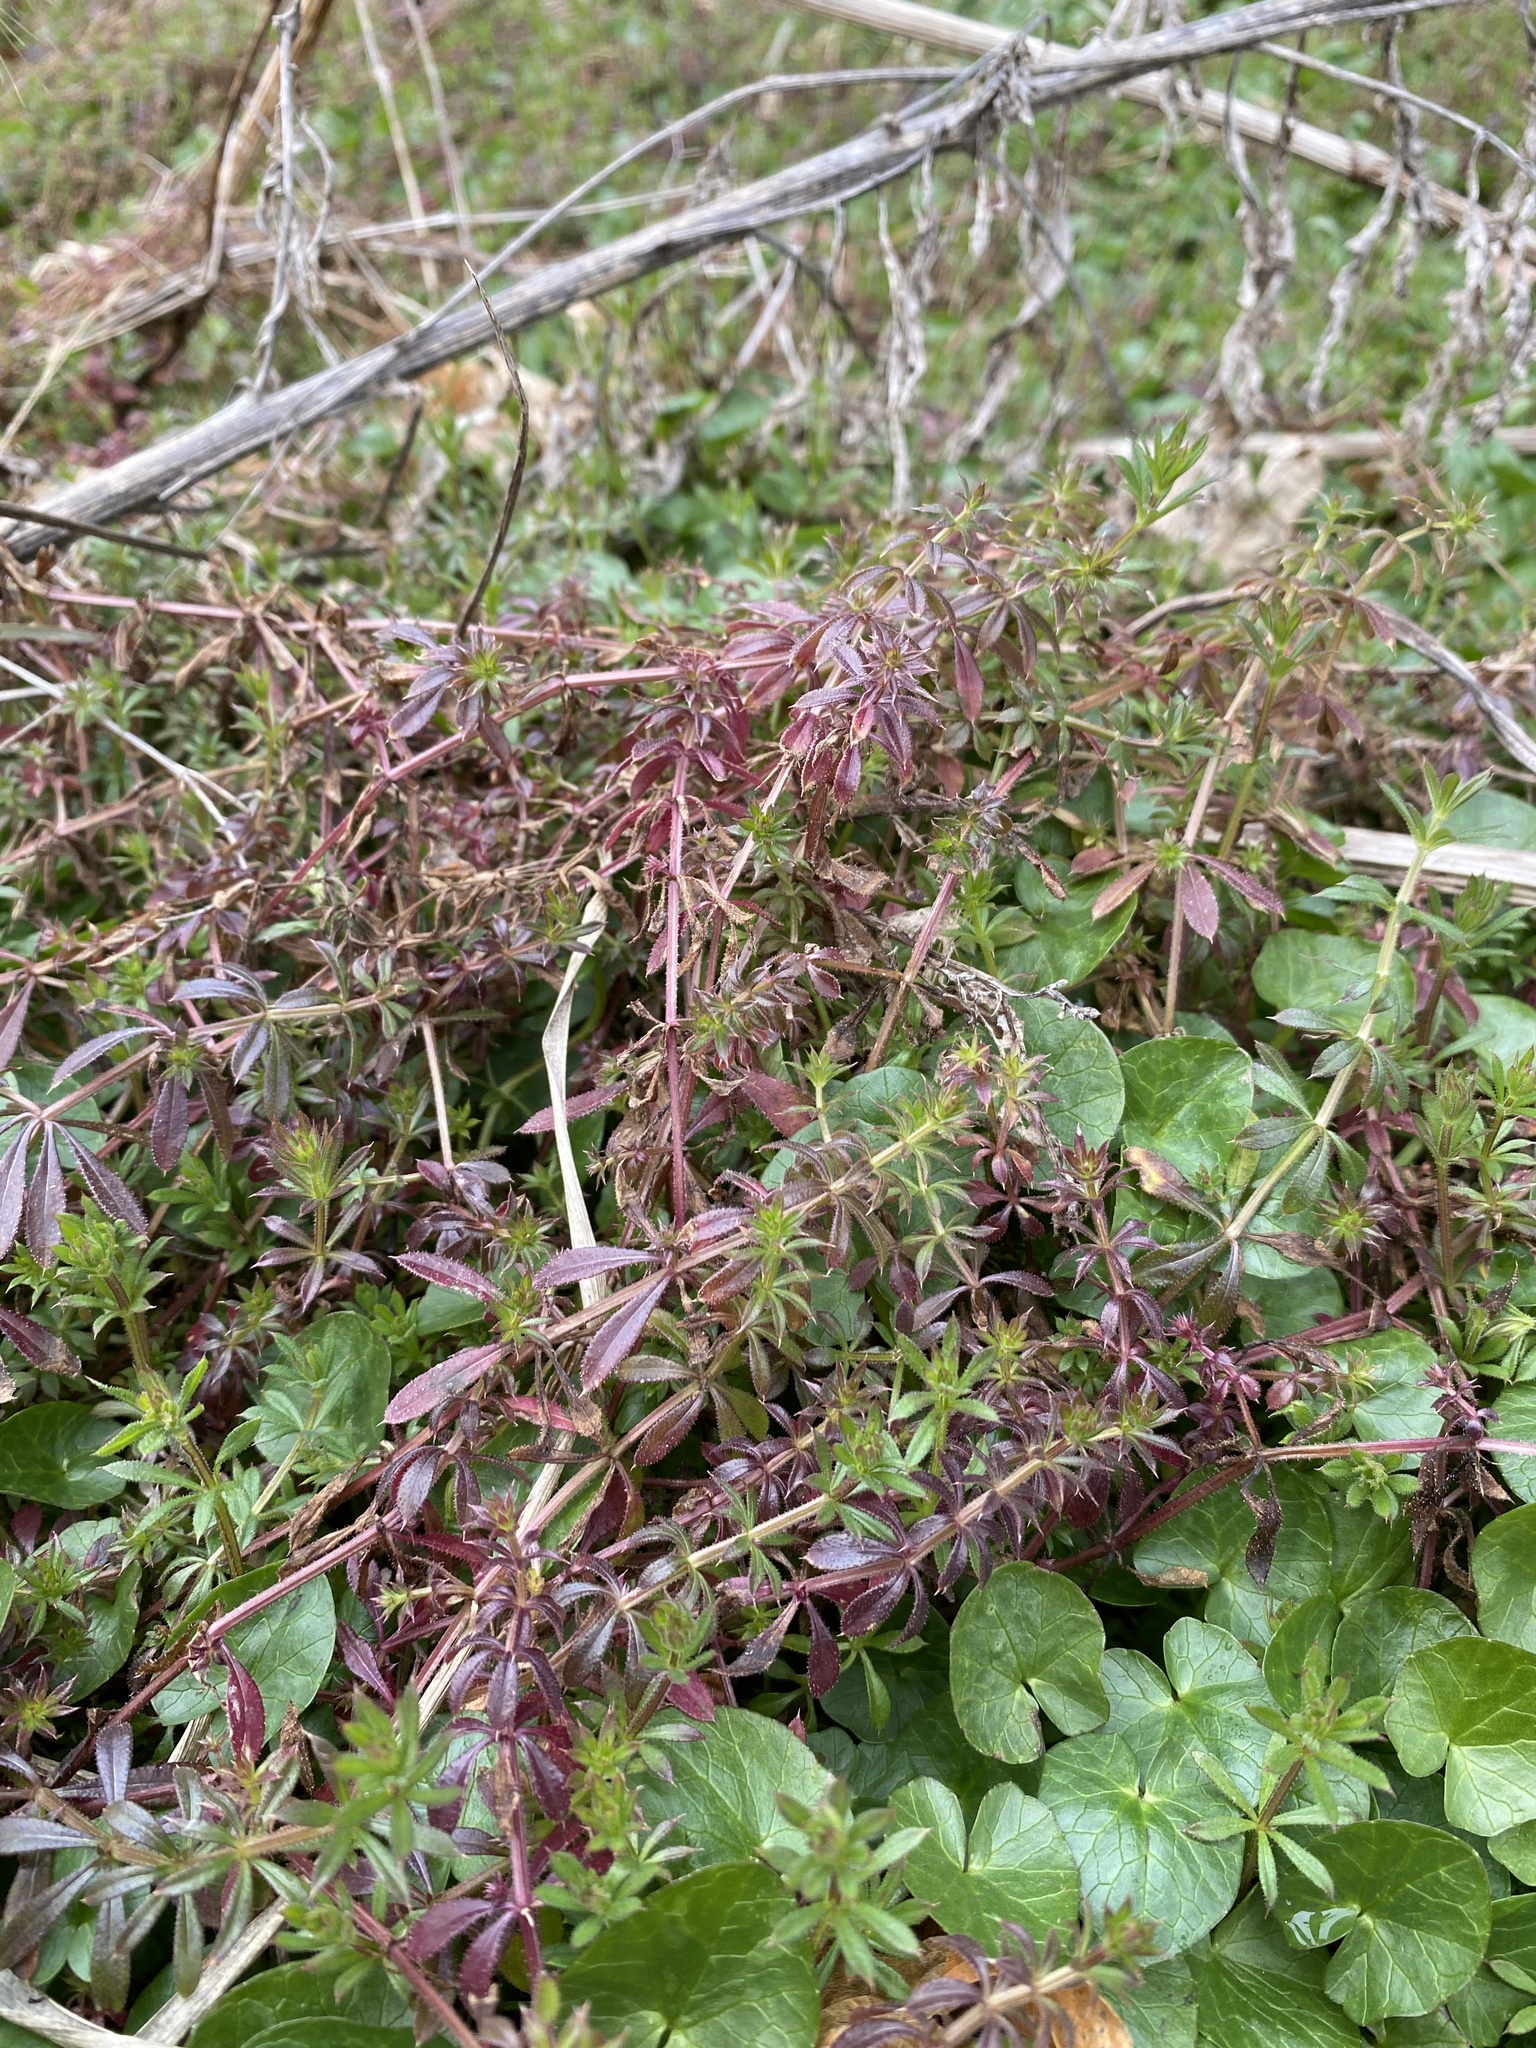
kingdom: Plantae
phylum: Tracheophyta
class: Magnoliopsida
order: Gentianales
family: Rubiaceae
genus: Galium
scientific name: Galium aparine
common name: Cleavers
